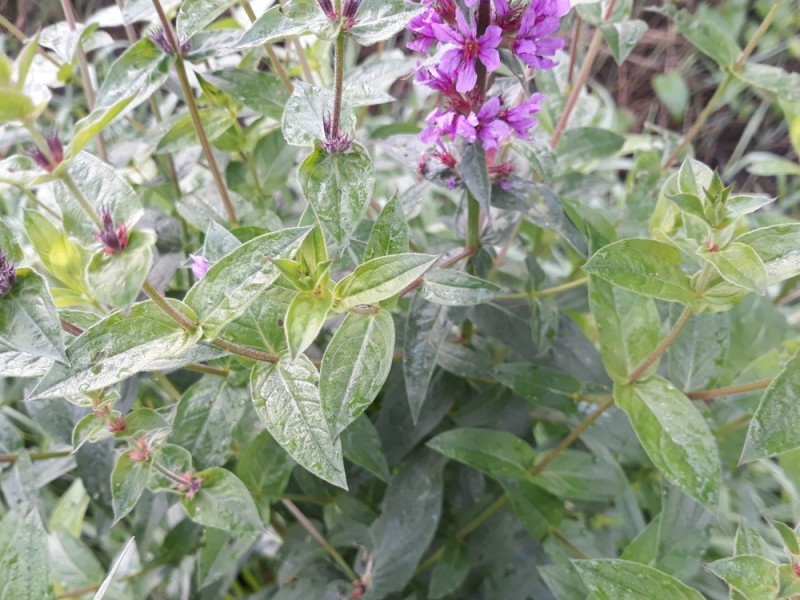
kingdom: Plantae
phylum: Tracheophyta
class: Magnoliopsida
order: Myrtales
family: Lythraceae
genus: Lythrum
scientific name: Lythrum salicaria
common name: Purple loosestrife
